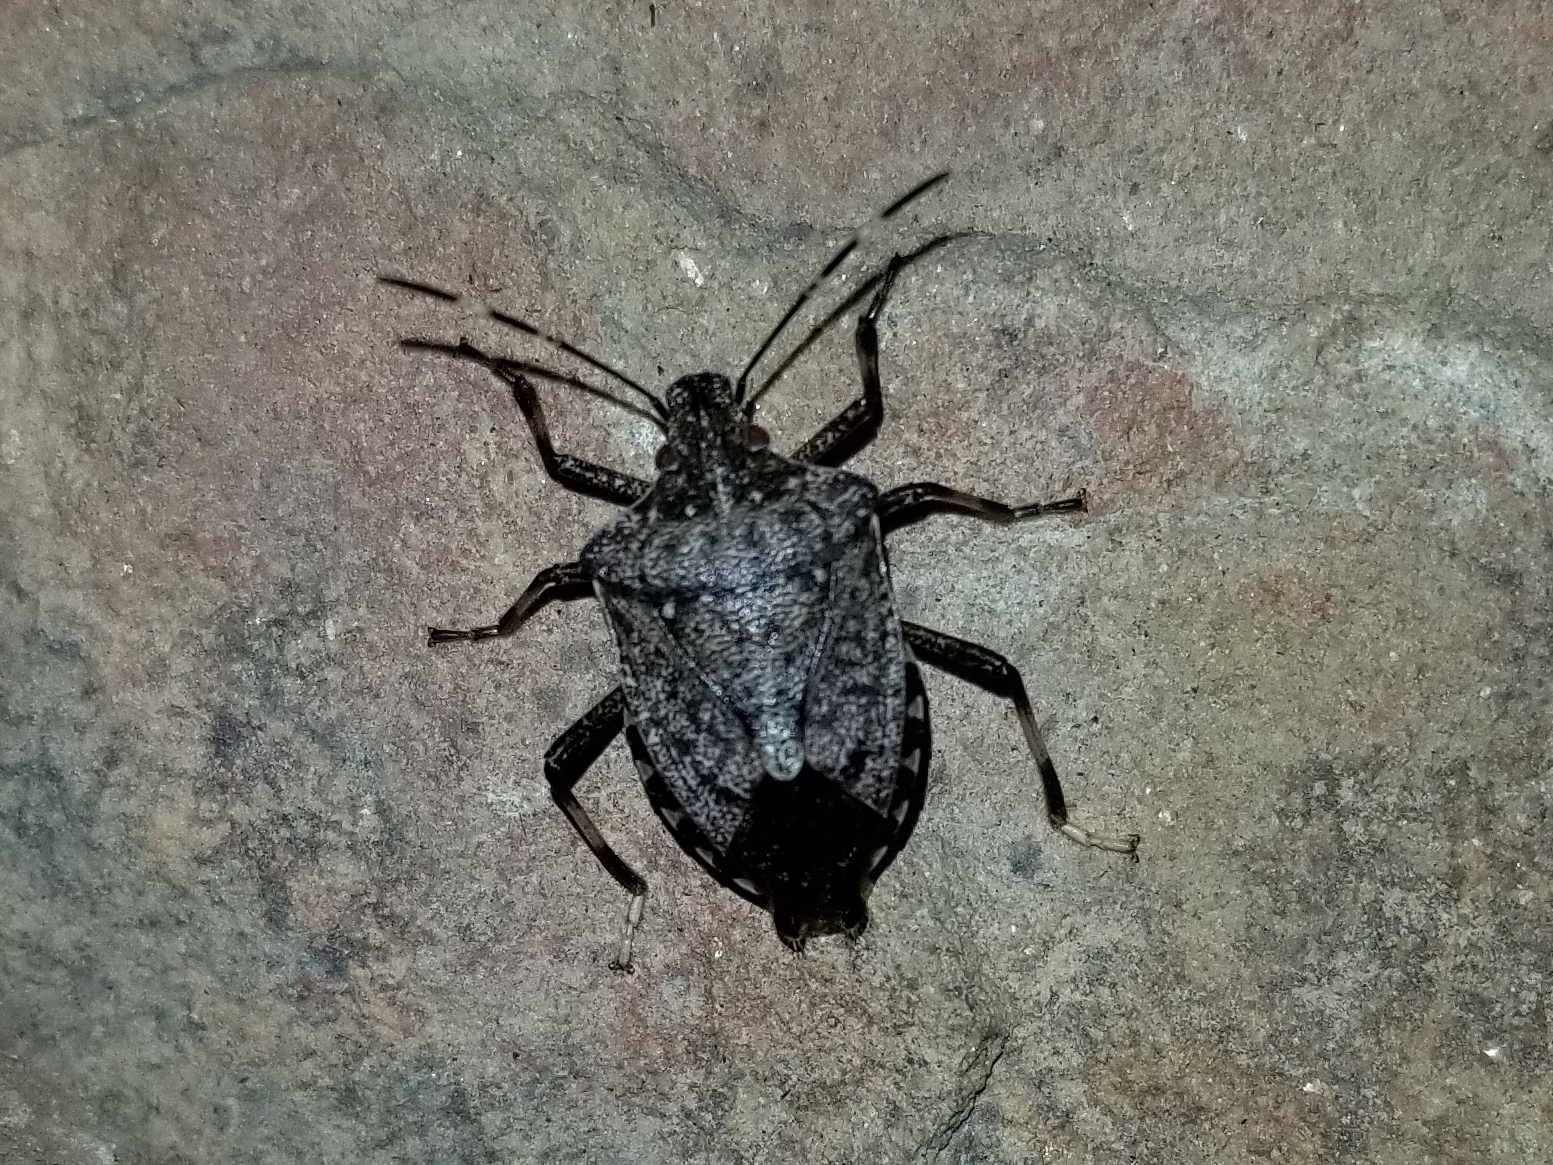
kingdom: Animalia
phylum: Arthropoda
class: Insecta
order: Hemiptera
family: Pentatomidae
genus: Halyomorpha
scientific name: Halyomorpha halys
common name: Brown marmorated stink bug
